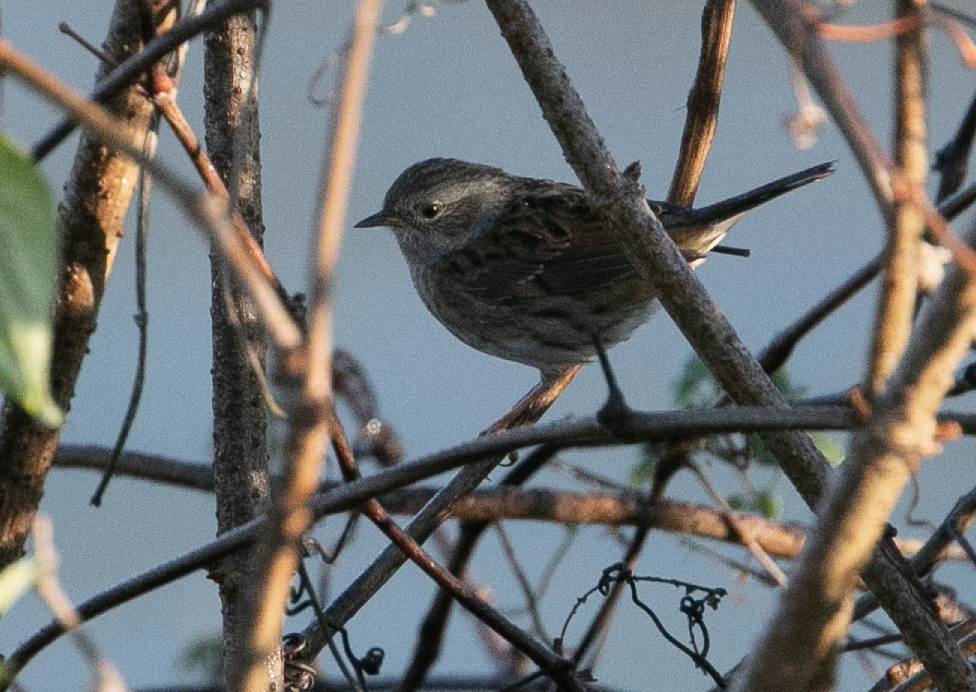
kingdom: Animalia
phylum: Chordata
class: Aves
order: Passeriformes
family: Prunellidae
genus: Prunella
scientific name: Prunella modularis
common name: Dunnock
